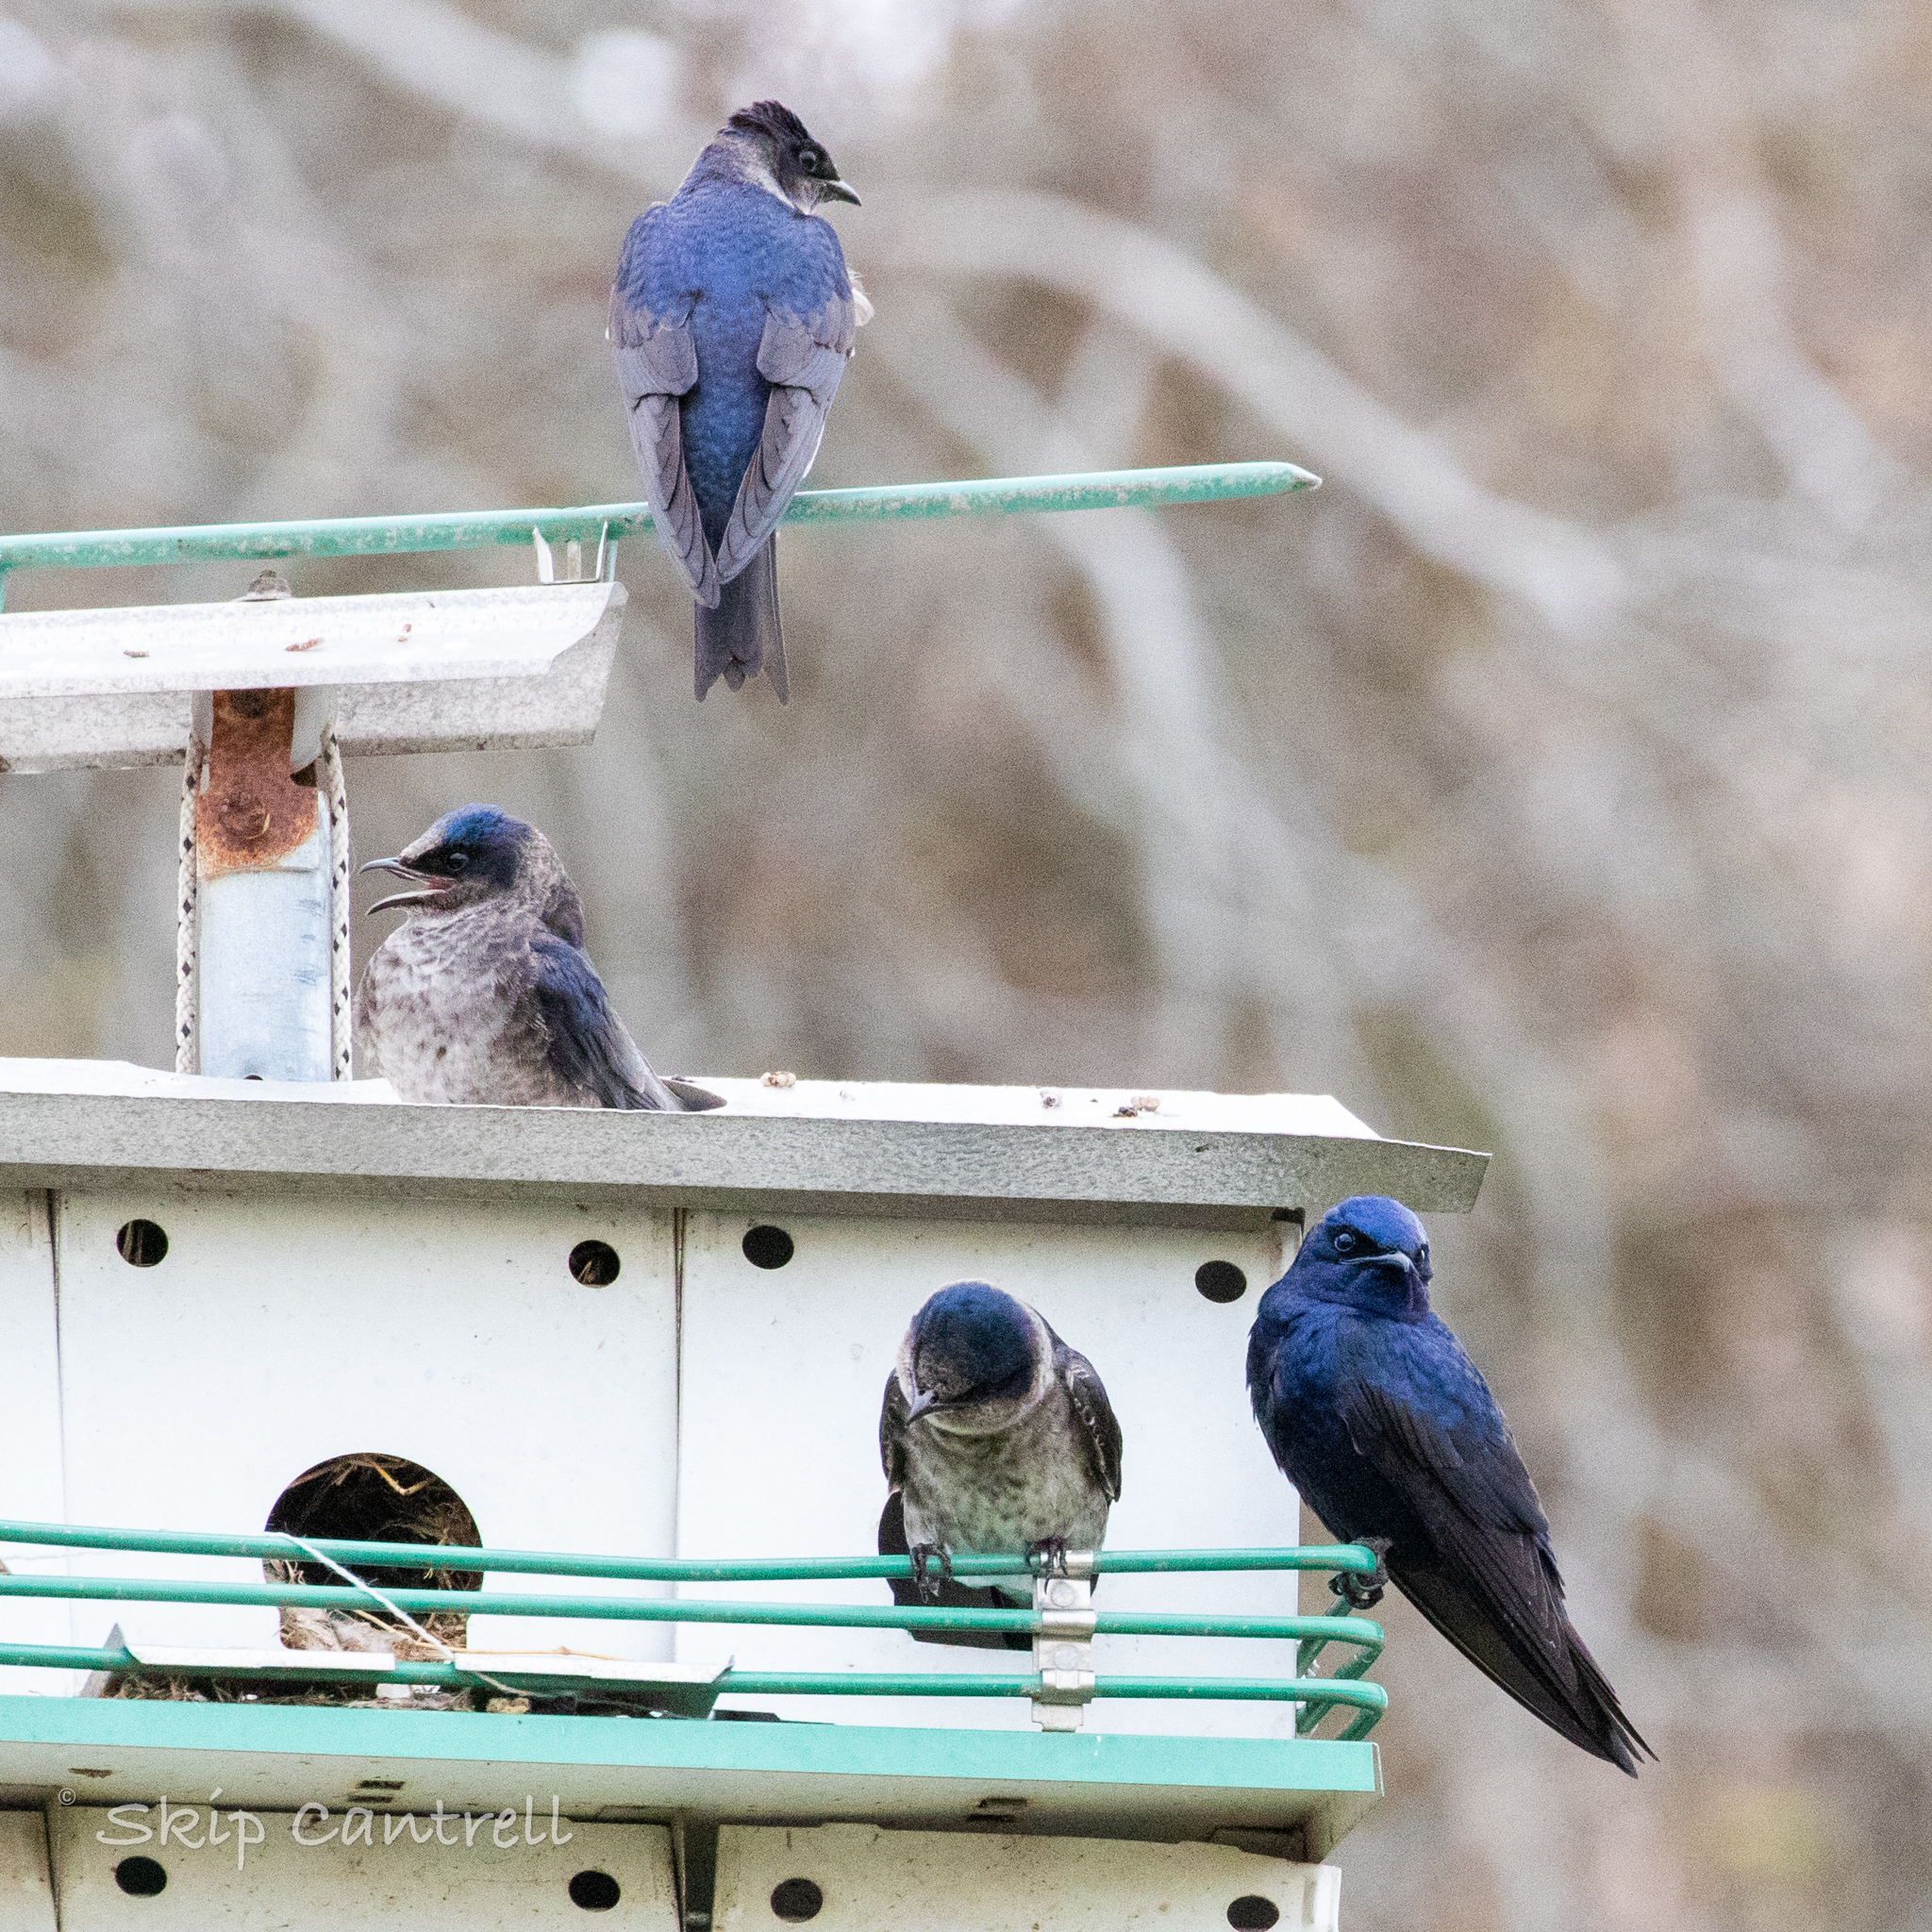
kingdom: Animalia
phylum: Chordata
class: Aves
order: Passeriformes
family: Hirundinidae
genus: Progne
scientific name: Progne subis
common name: Purple martin
